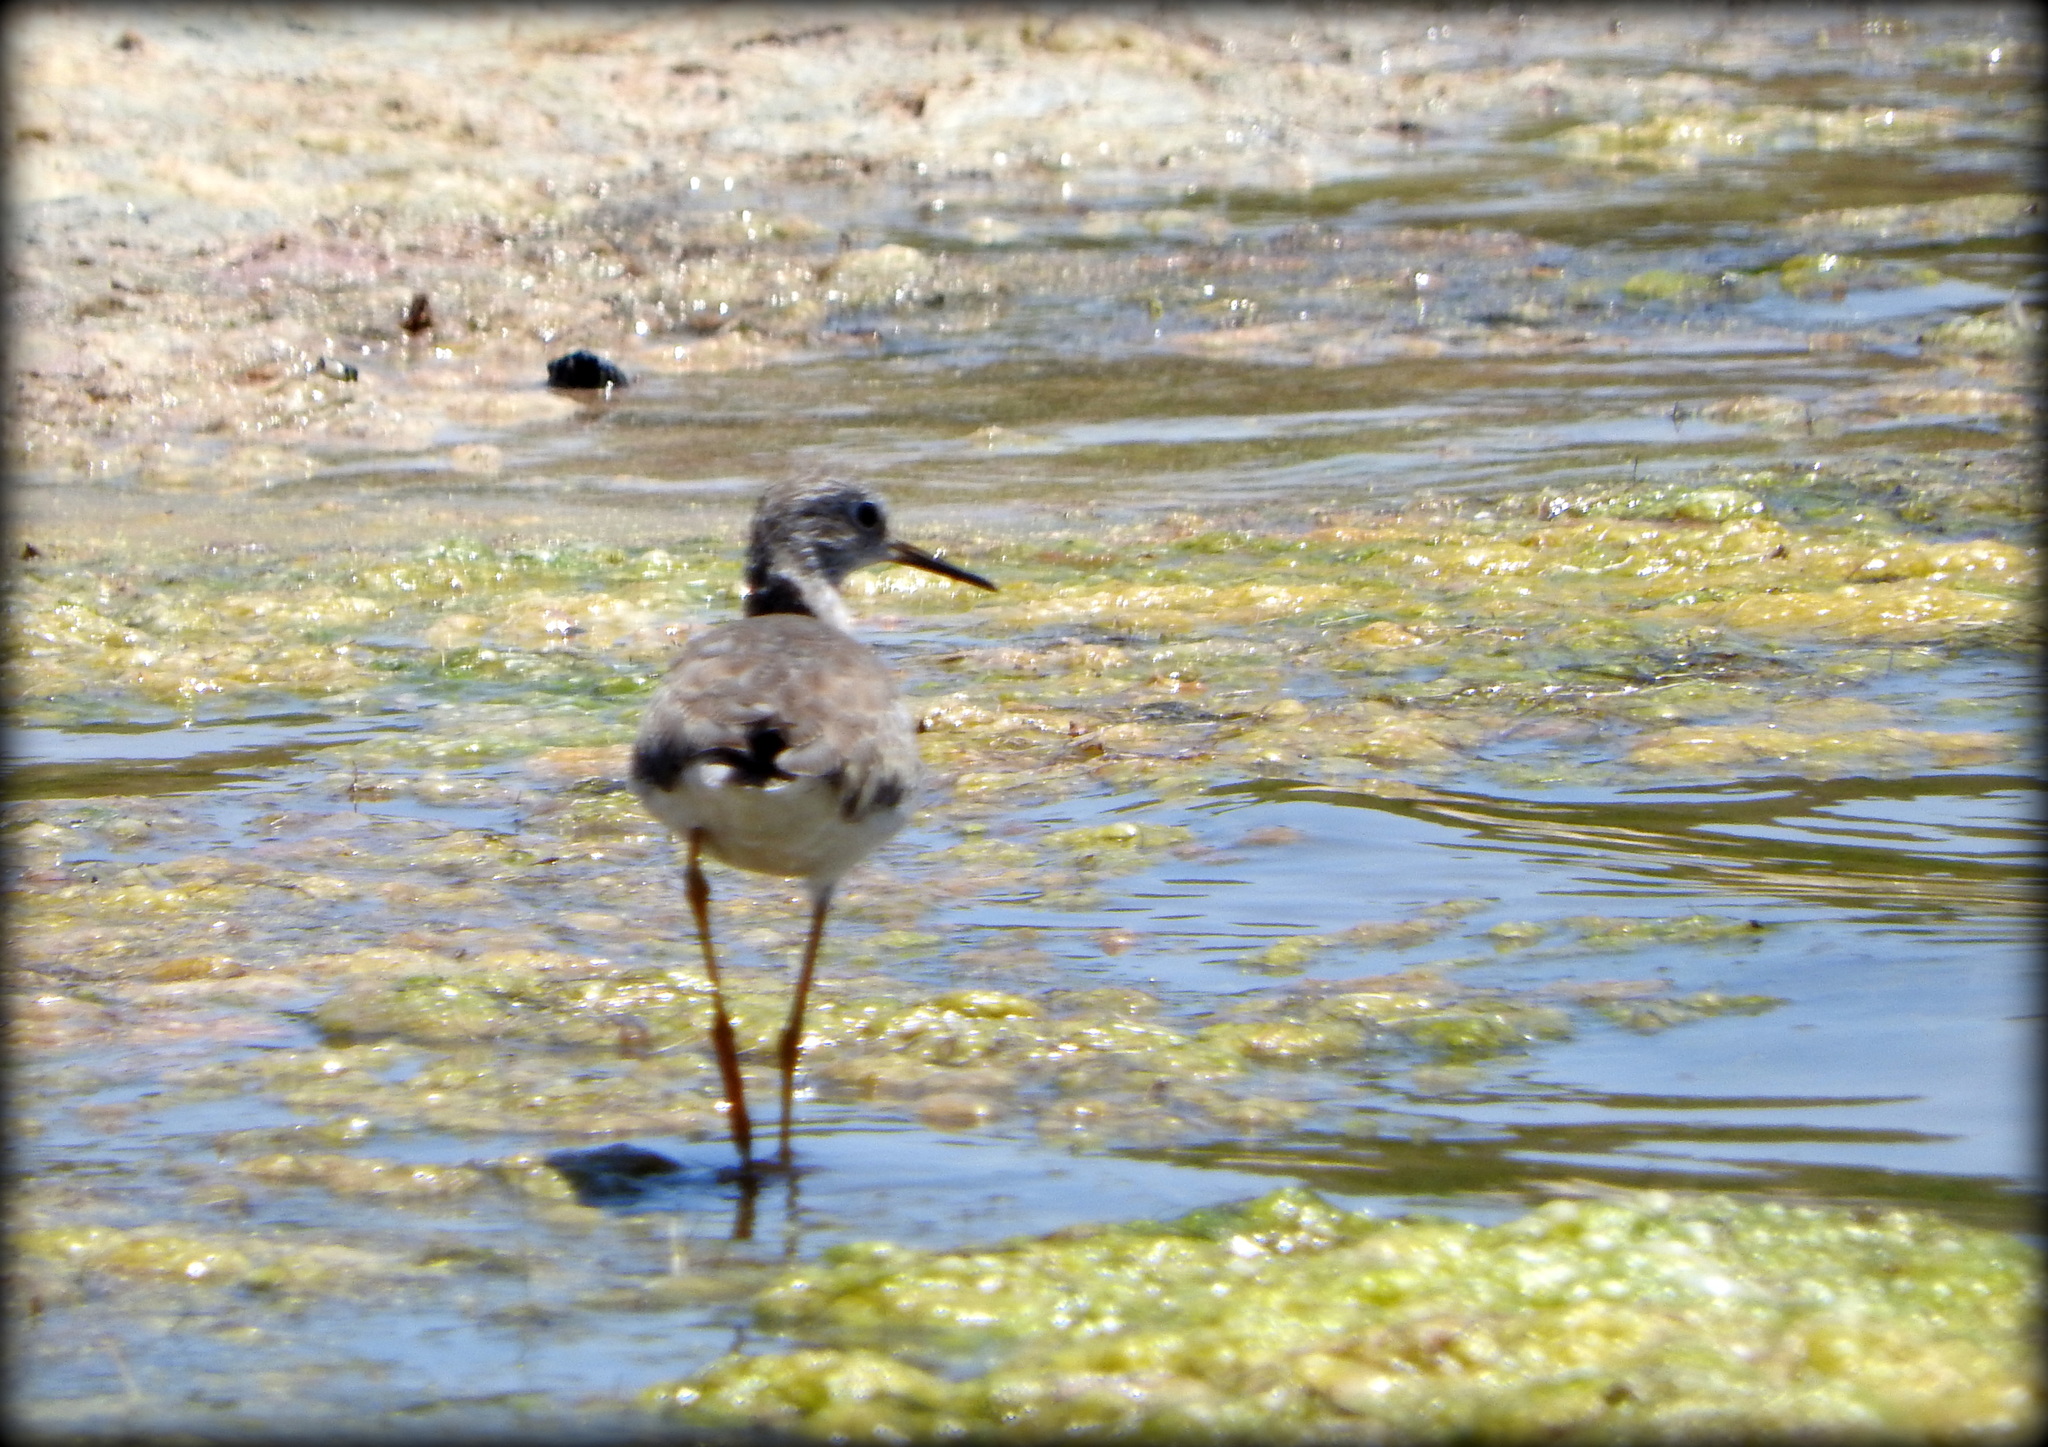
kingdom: Animalia
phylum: Chordata
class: Aves
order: Charadriiformes
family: Scolopacidae
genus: Tringa
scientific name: Tringa flavipes
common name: Lesser yellowlegs
